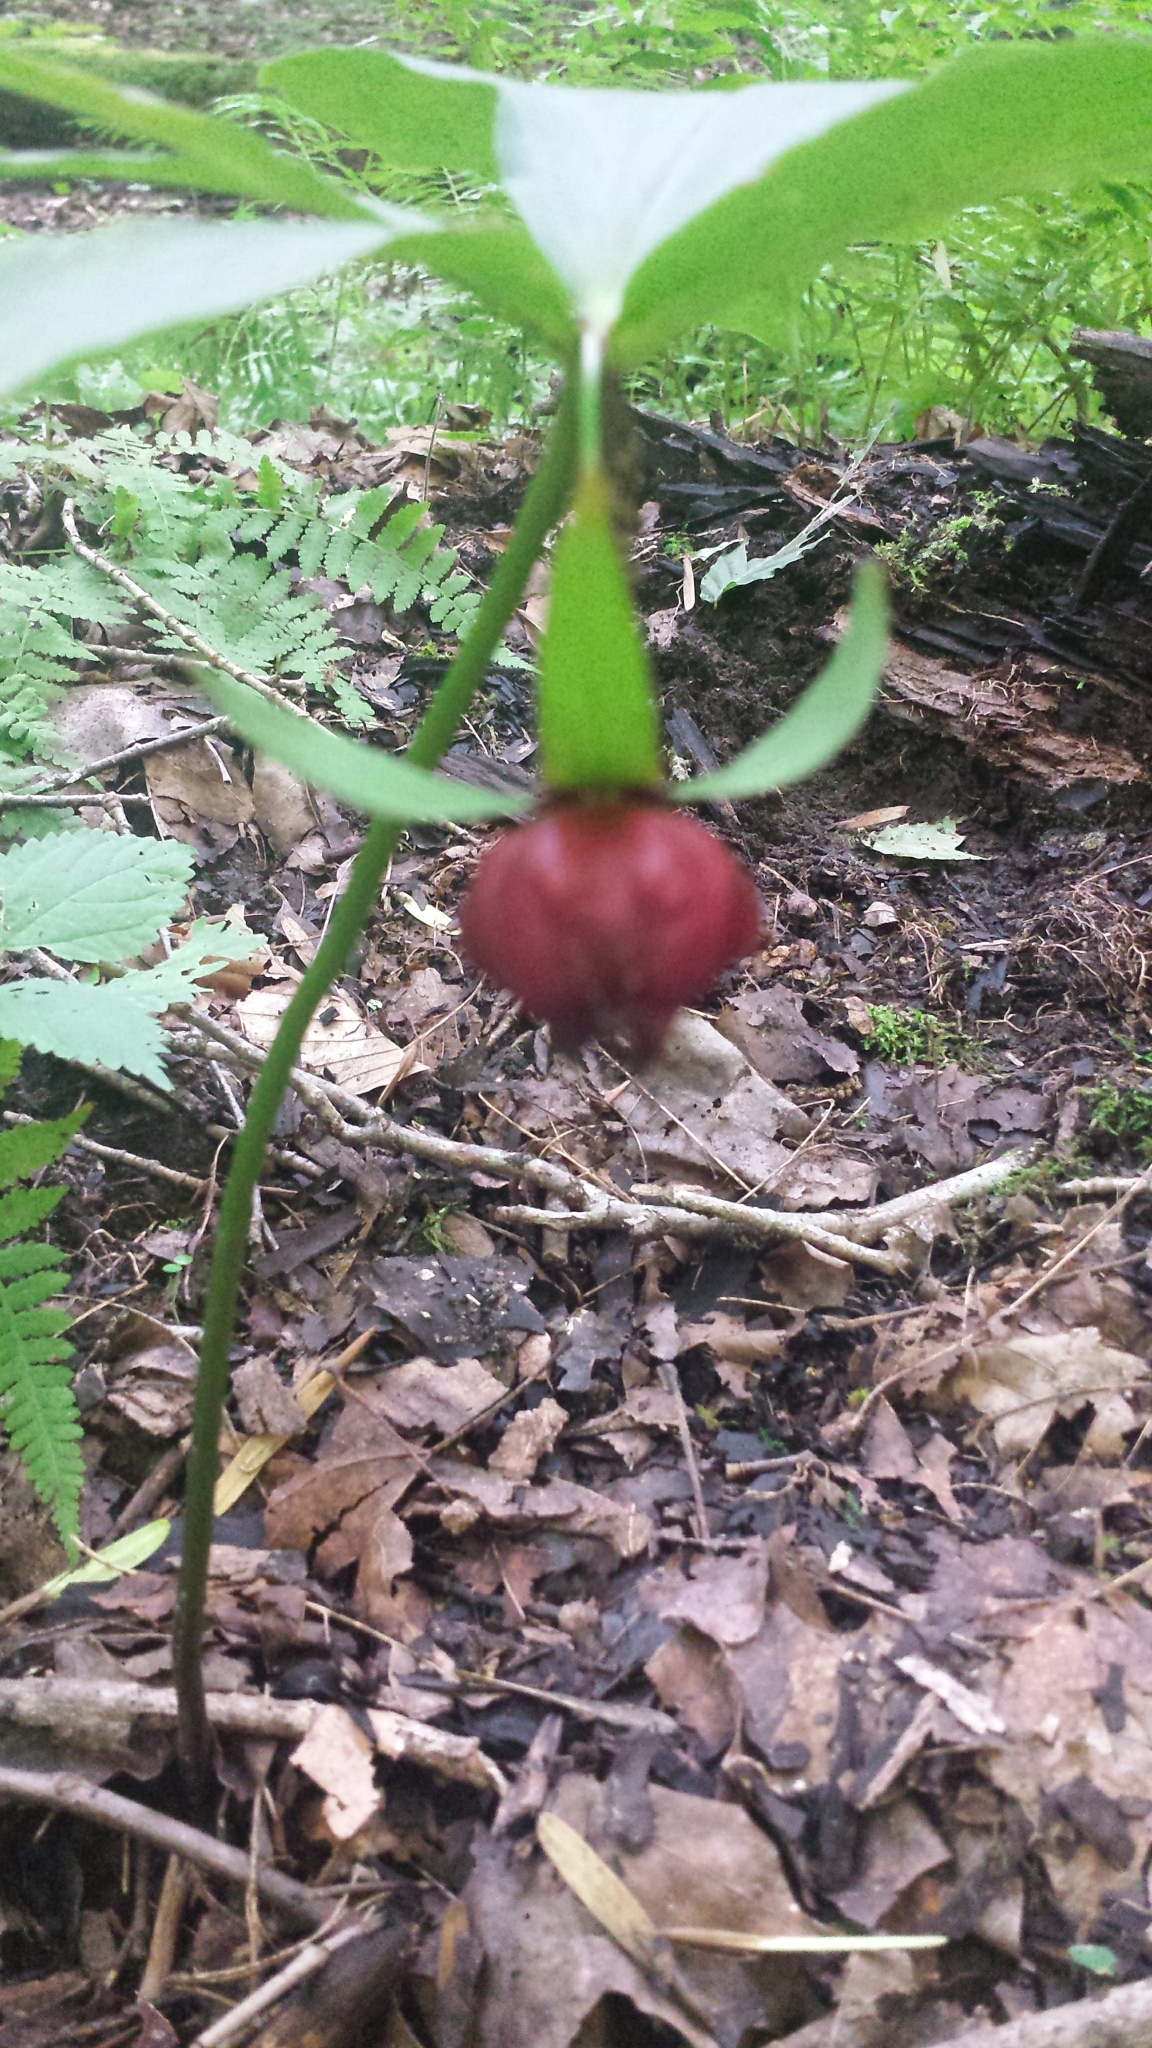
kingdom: Plantae
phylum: Tracheophyta
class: Liliopsida
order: Liliales
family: Melanthiaceae
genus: Trillium
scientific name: Trillium erectum
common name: Purple trillium
